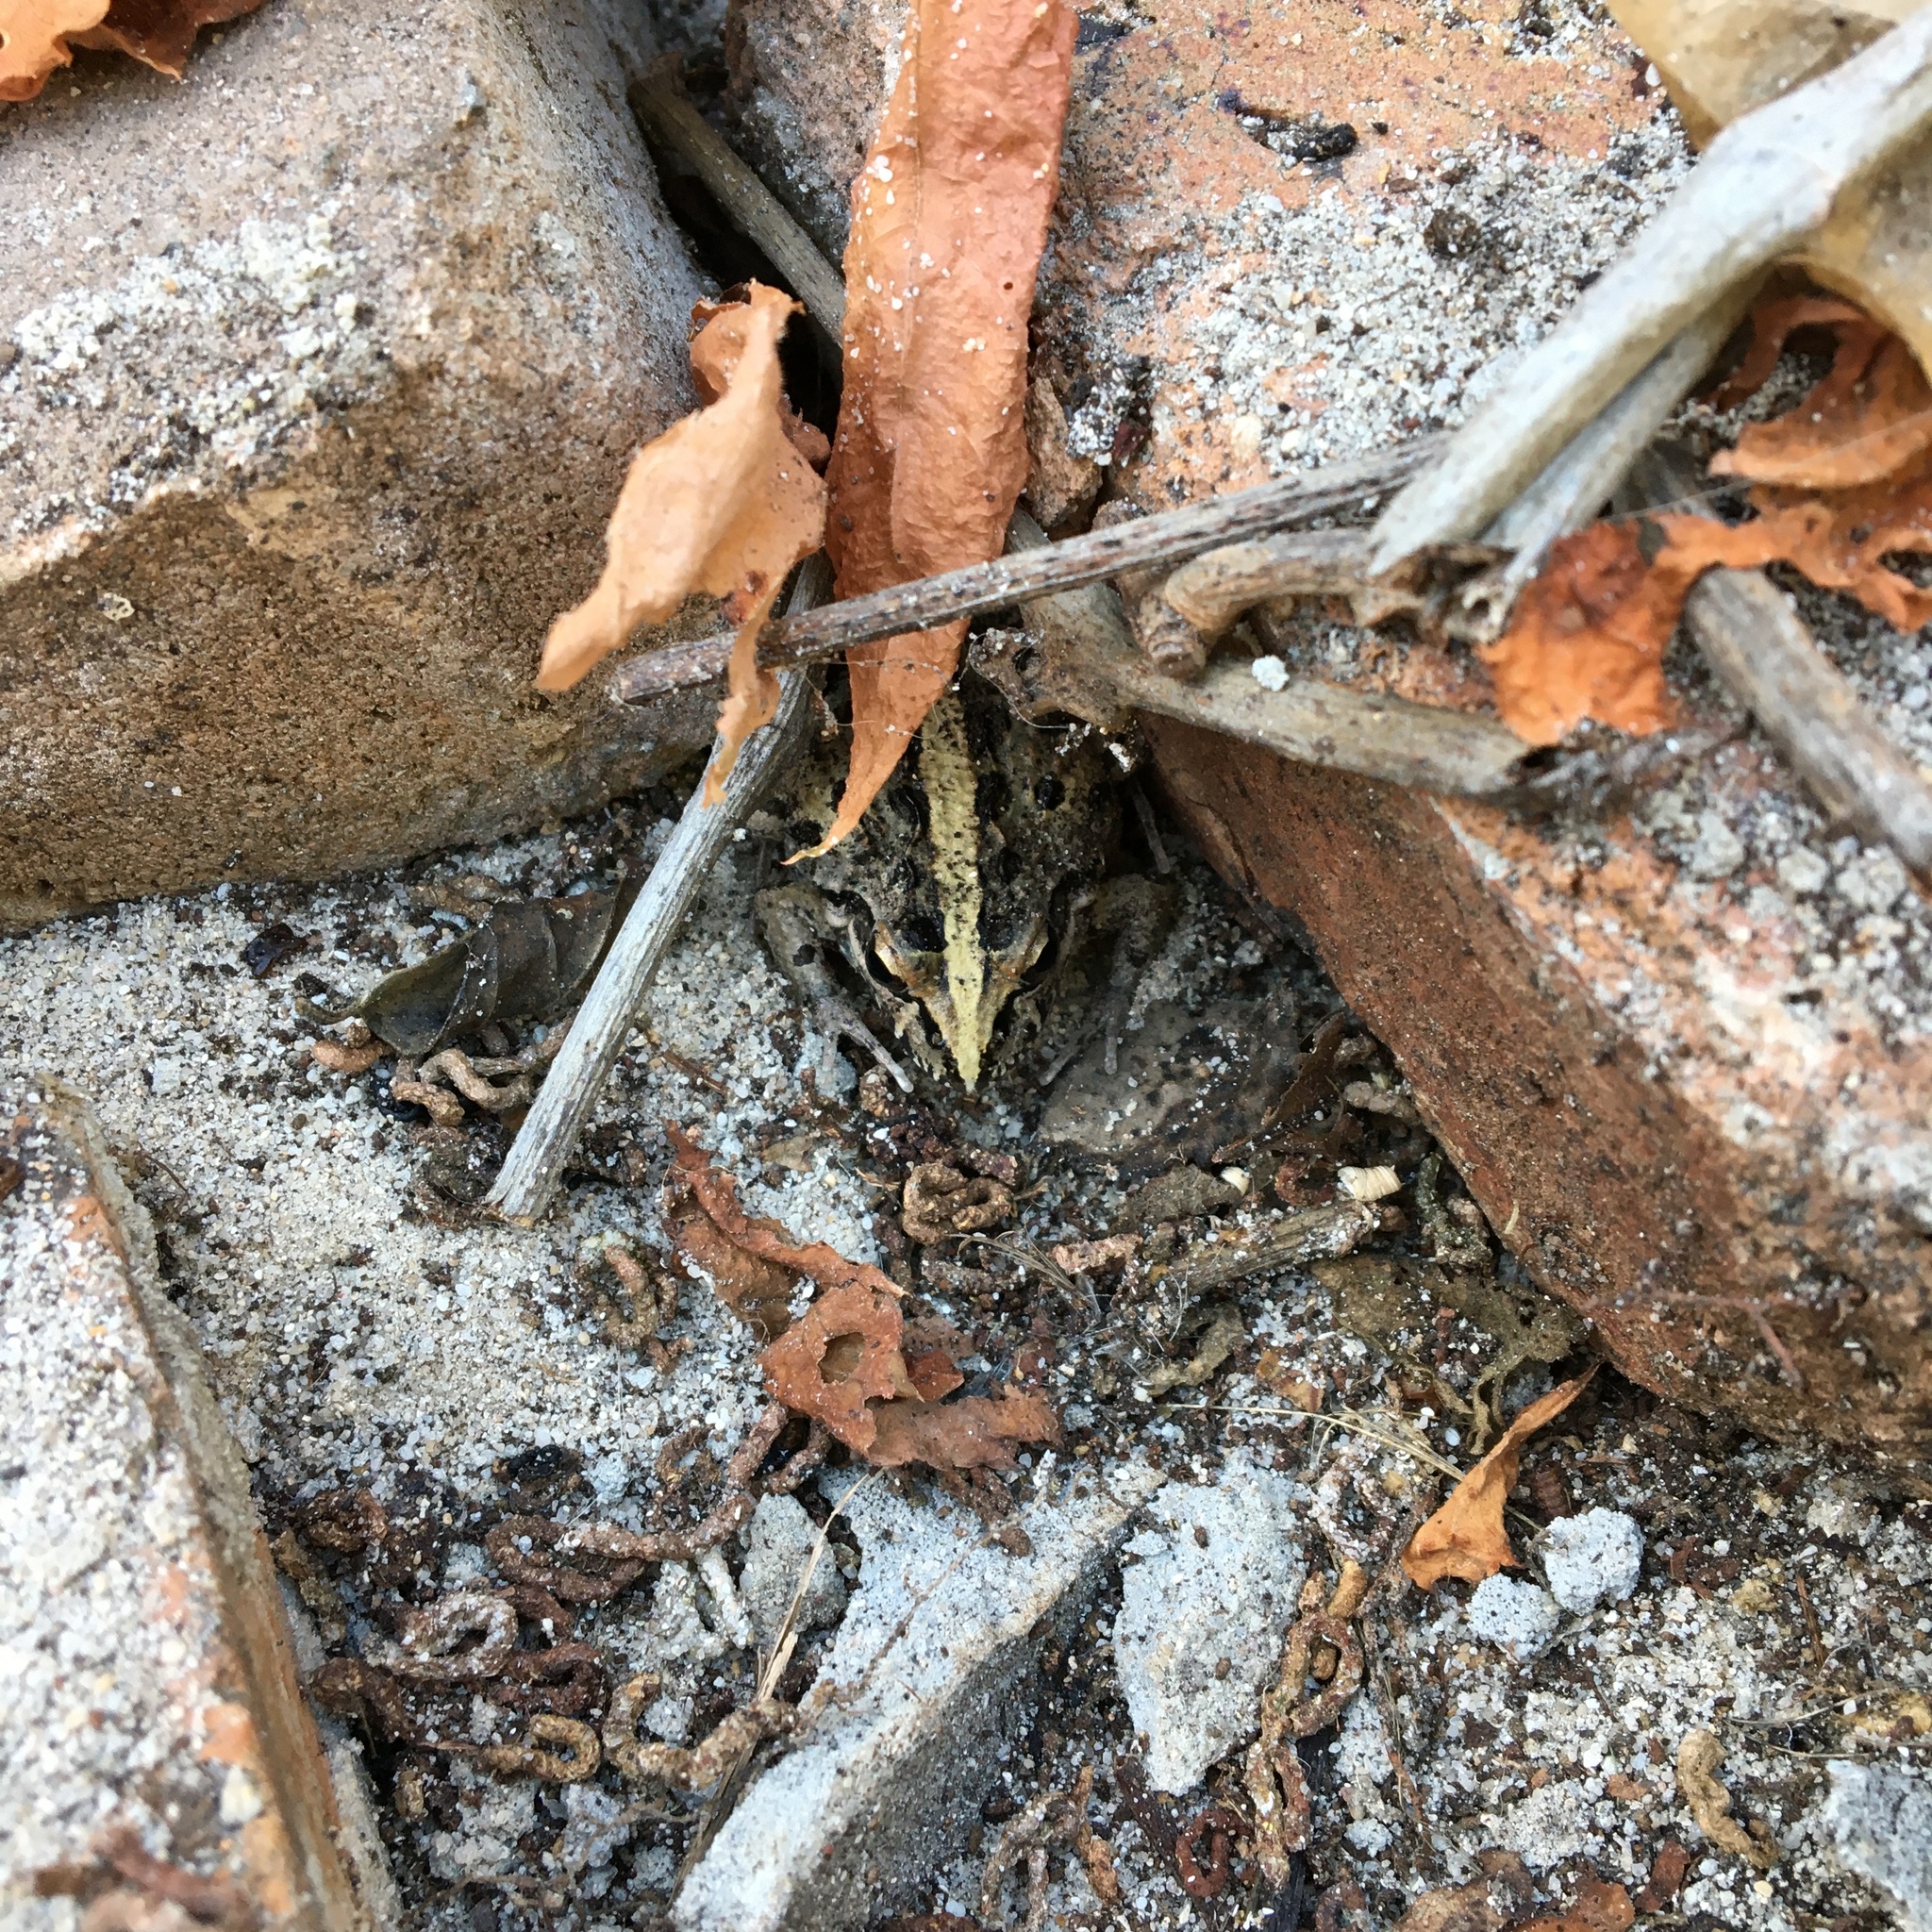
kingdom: Animalia
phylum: Chordata
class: Amphibia
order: Anura
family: Pyxicephalidae
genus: Strongylopus
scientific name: Strongylopus grayii
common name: Gray's stream frog
